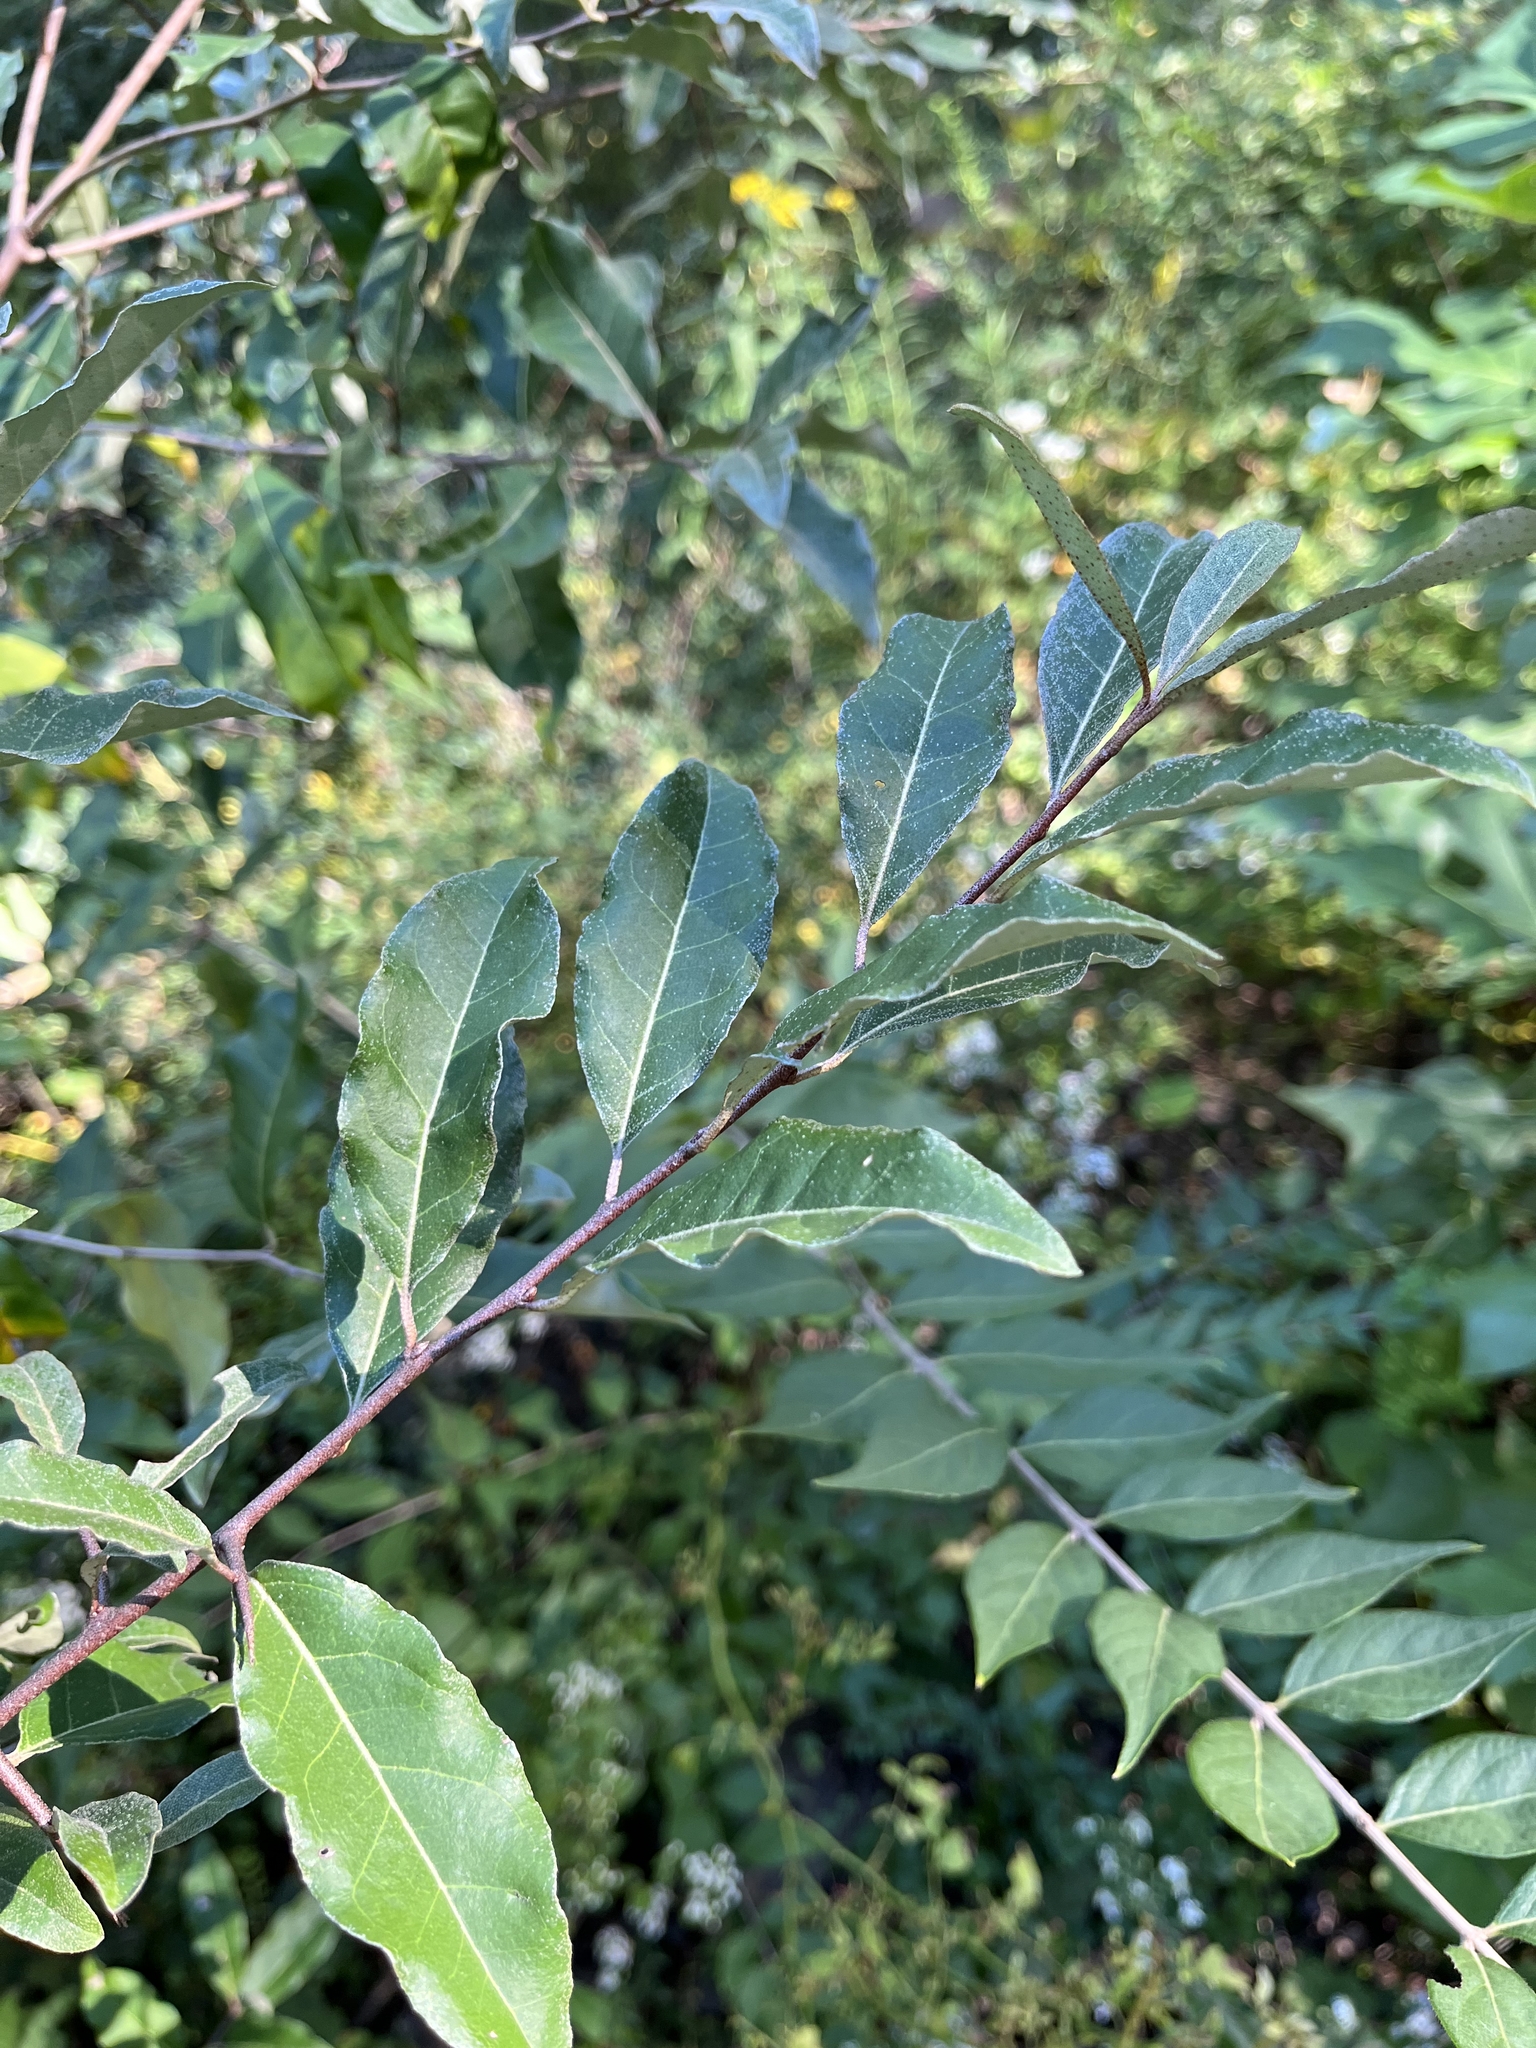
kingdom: Plantae
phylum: Tracheophyta
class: Magnoliopsida
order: Rosales
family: Elaeagnaceae
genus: Elaeagnus
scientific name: Elaeagnus umbellata
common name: Autumn olive
